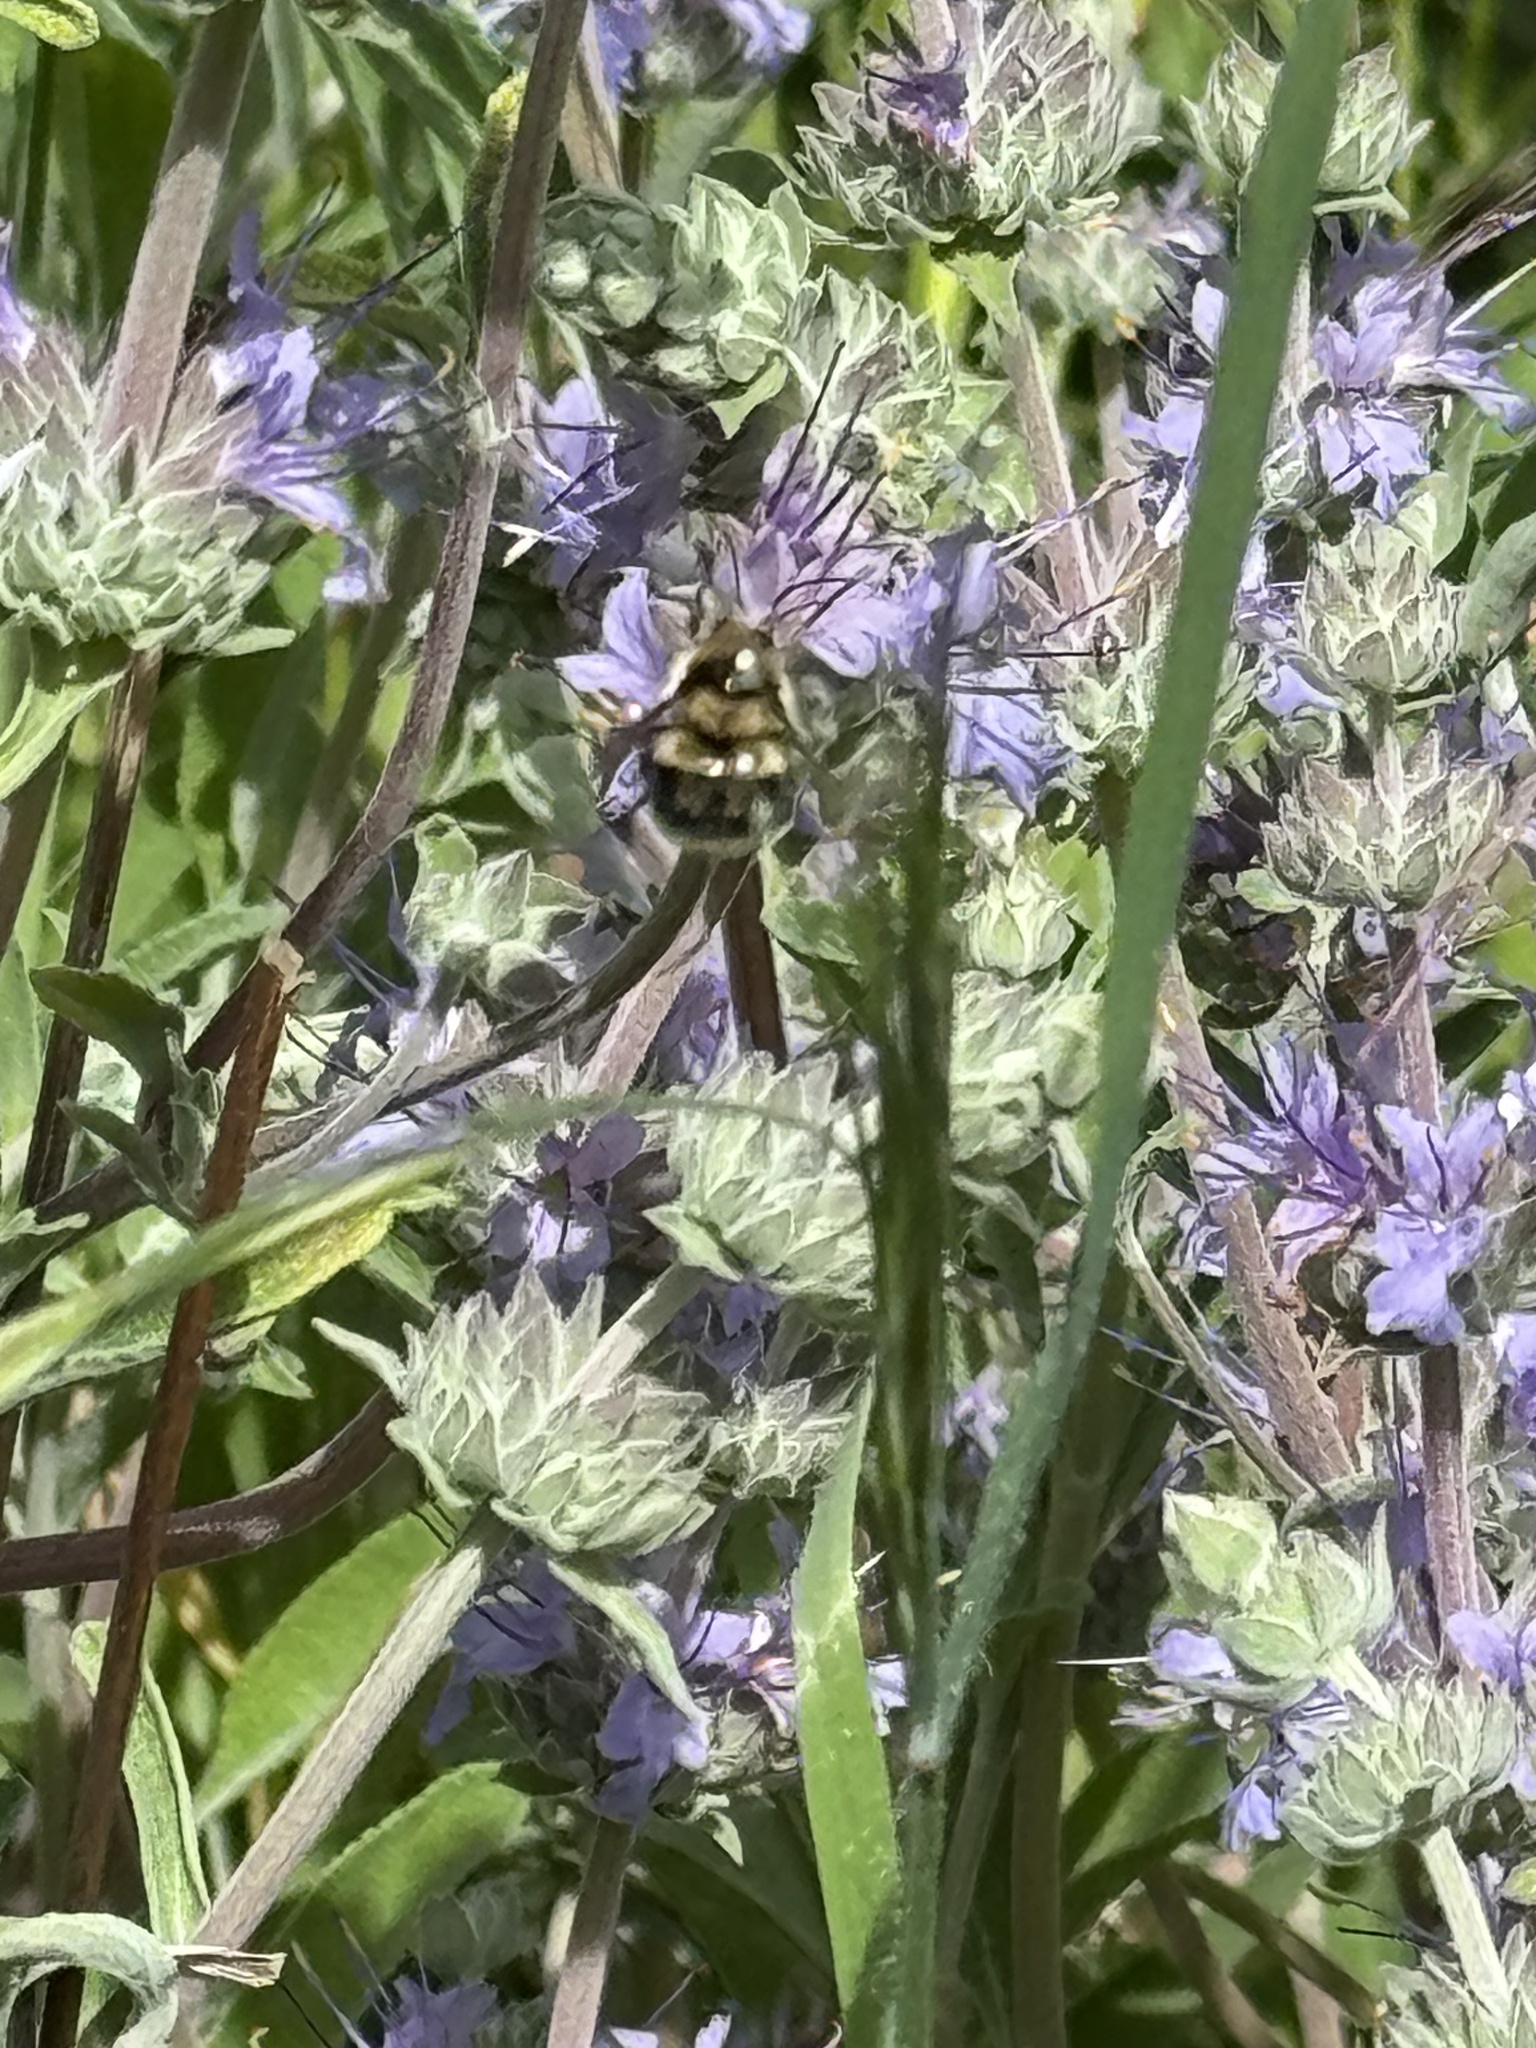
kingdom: Animalia
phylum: Arthropoda
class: Insecta
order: Hymenoptera
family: Apidae
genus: Bombus
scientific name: Bombus melanopygus
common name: Black tail bumble bee
